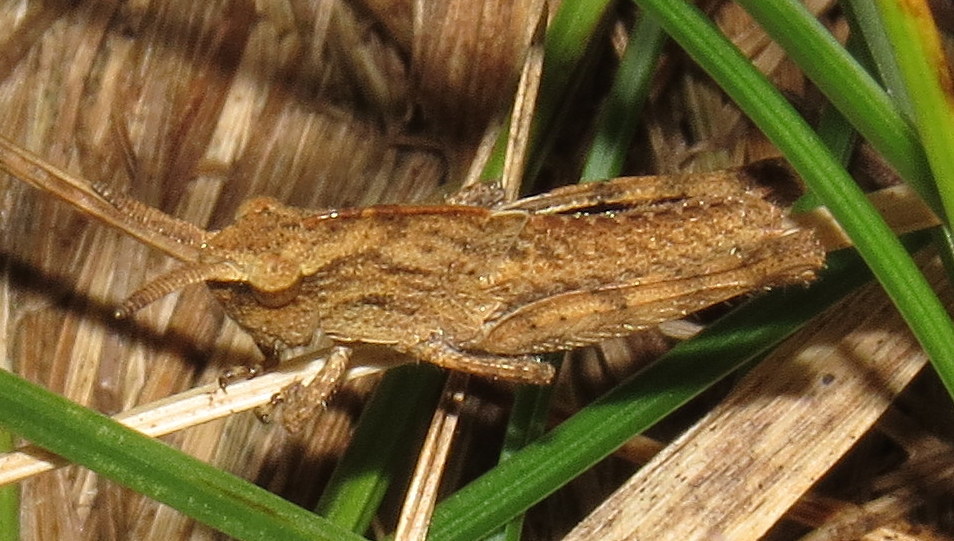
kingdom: Animalia
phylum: Arthropoda
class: Insecta
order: Orthoptera
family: Acrididae
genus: Chortophaga
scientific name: Chortophaga viridifasciata
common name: Green-striped grasshopper
